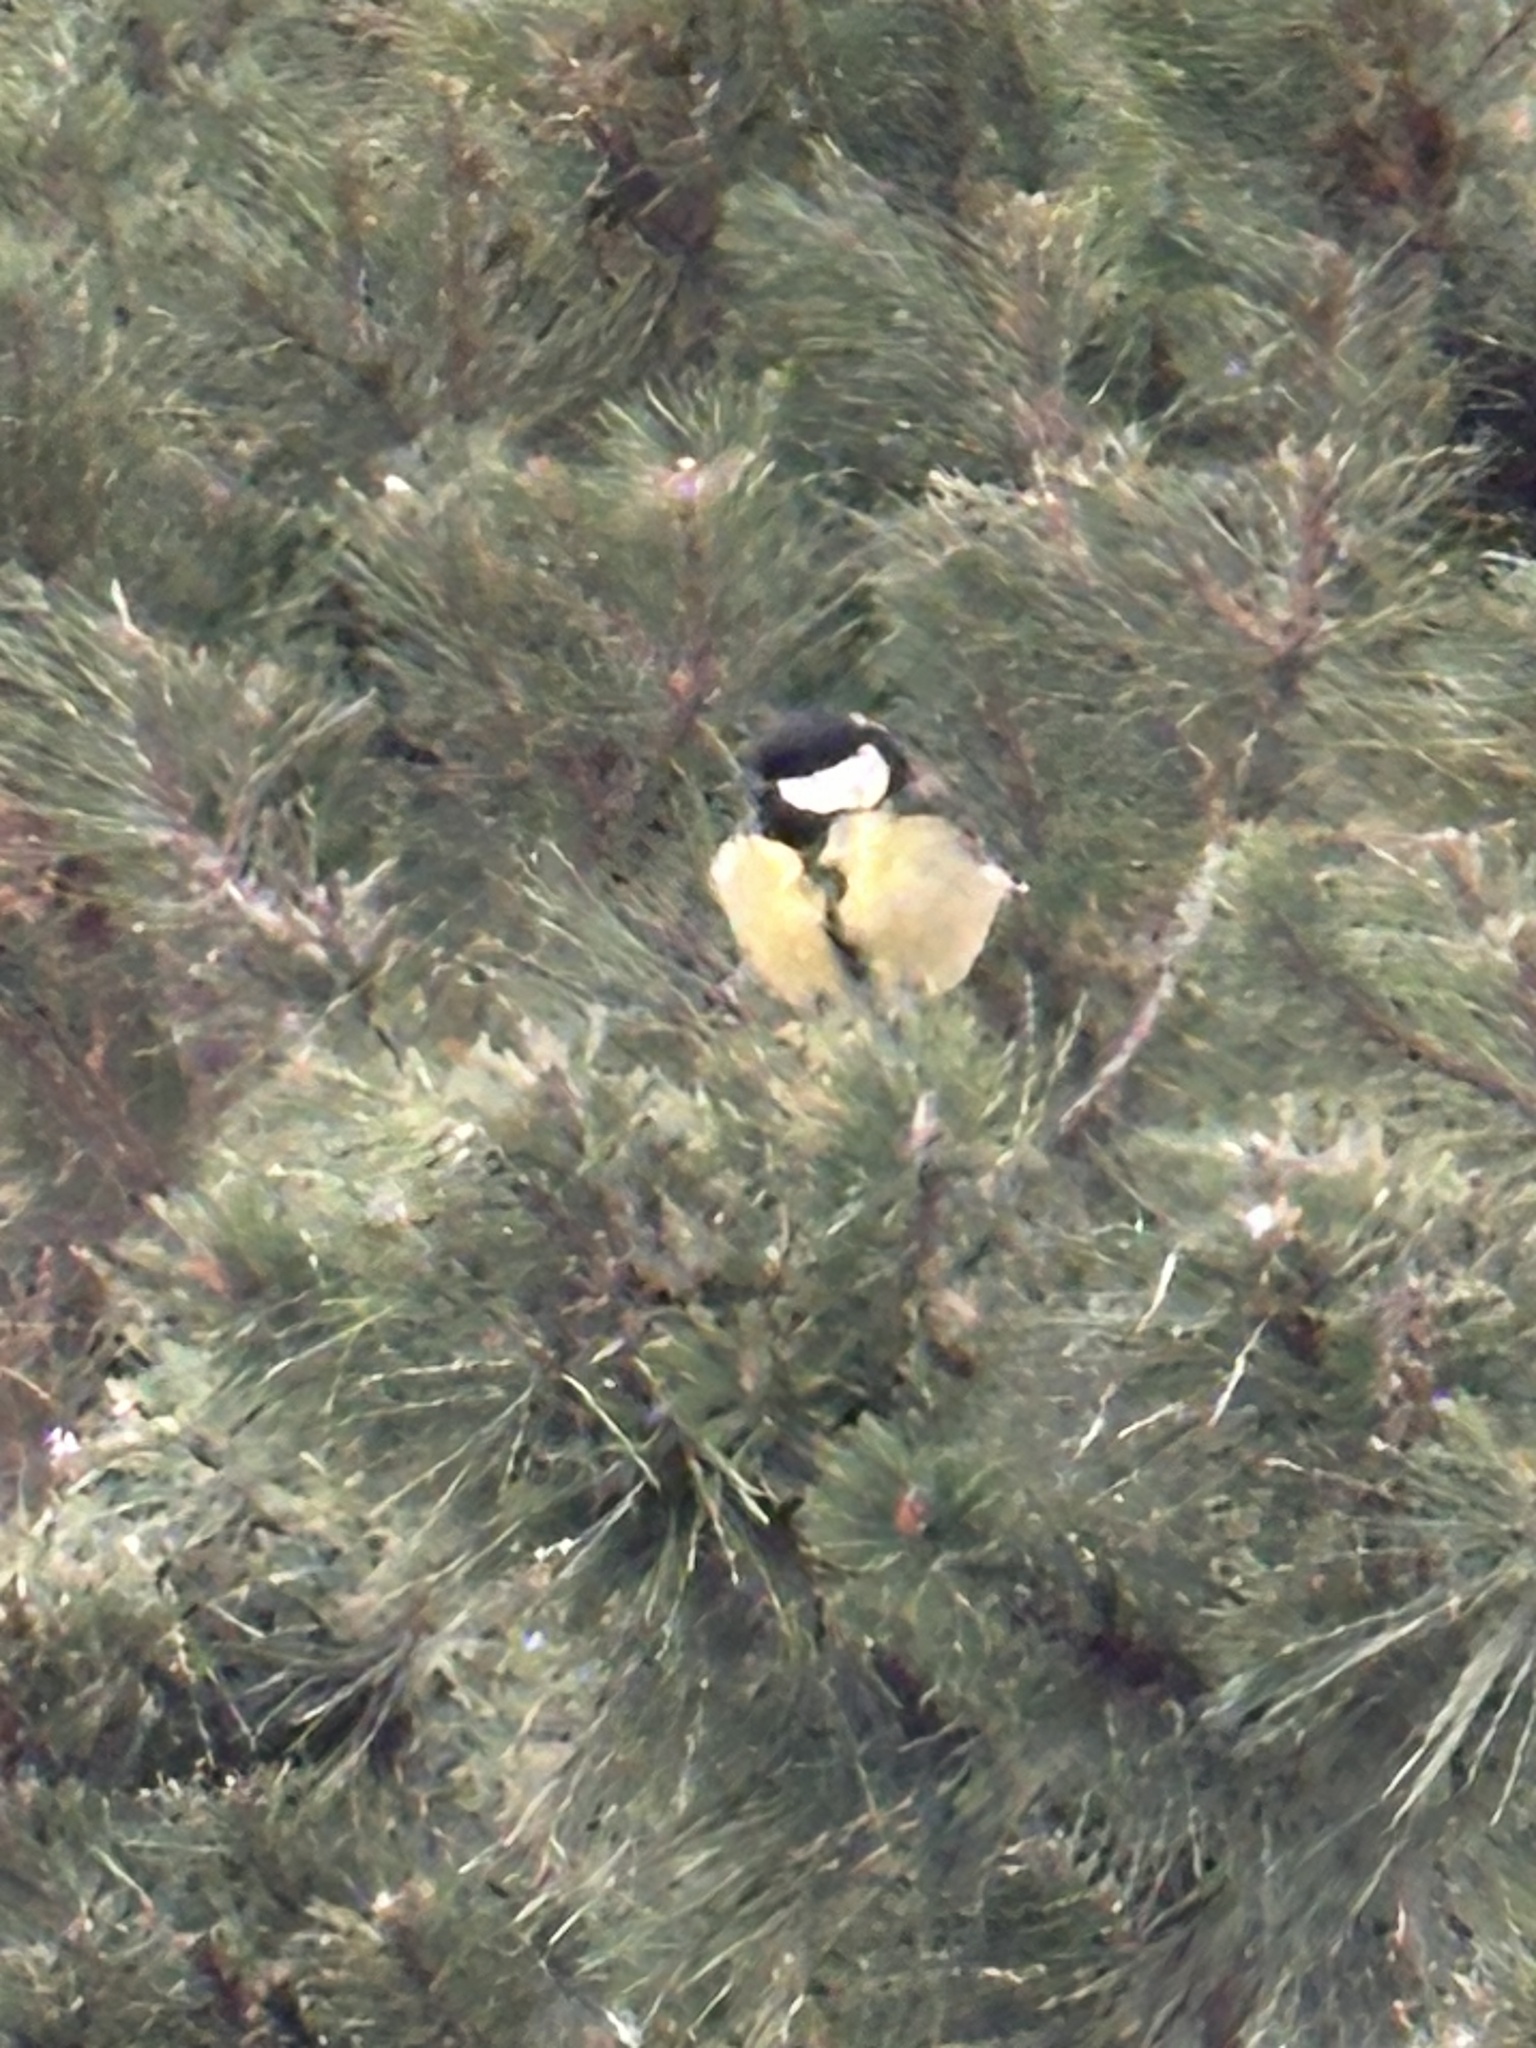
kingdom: Animalia
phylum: Chordata
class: Aves
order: Passeriformes
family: Paridae
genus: Parus
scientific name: Parus major
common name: Great tit
